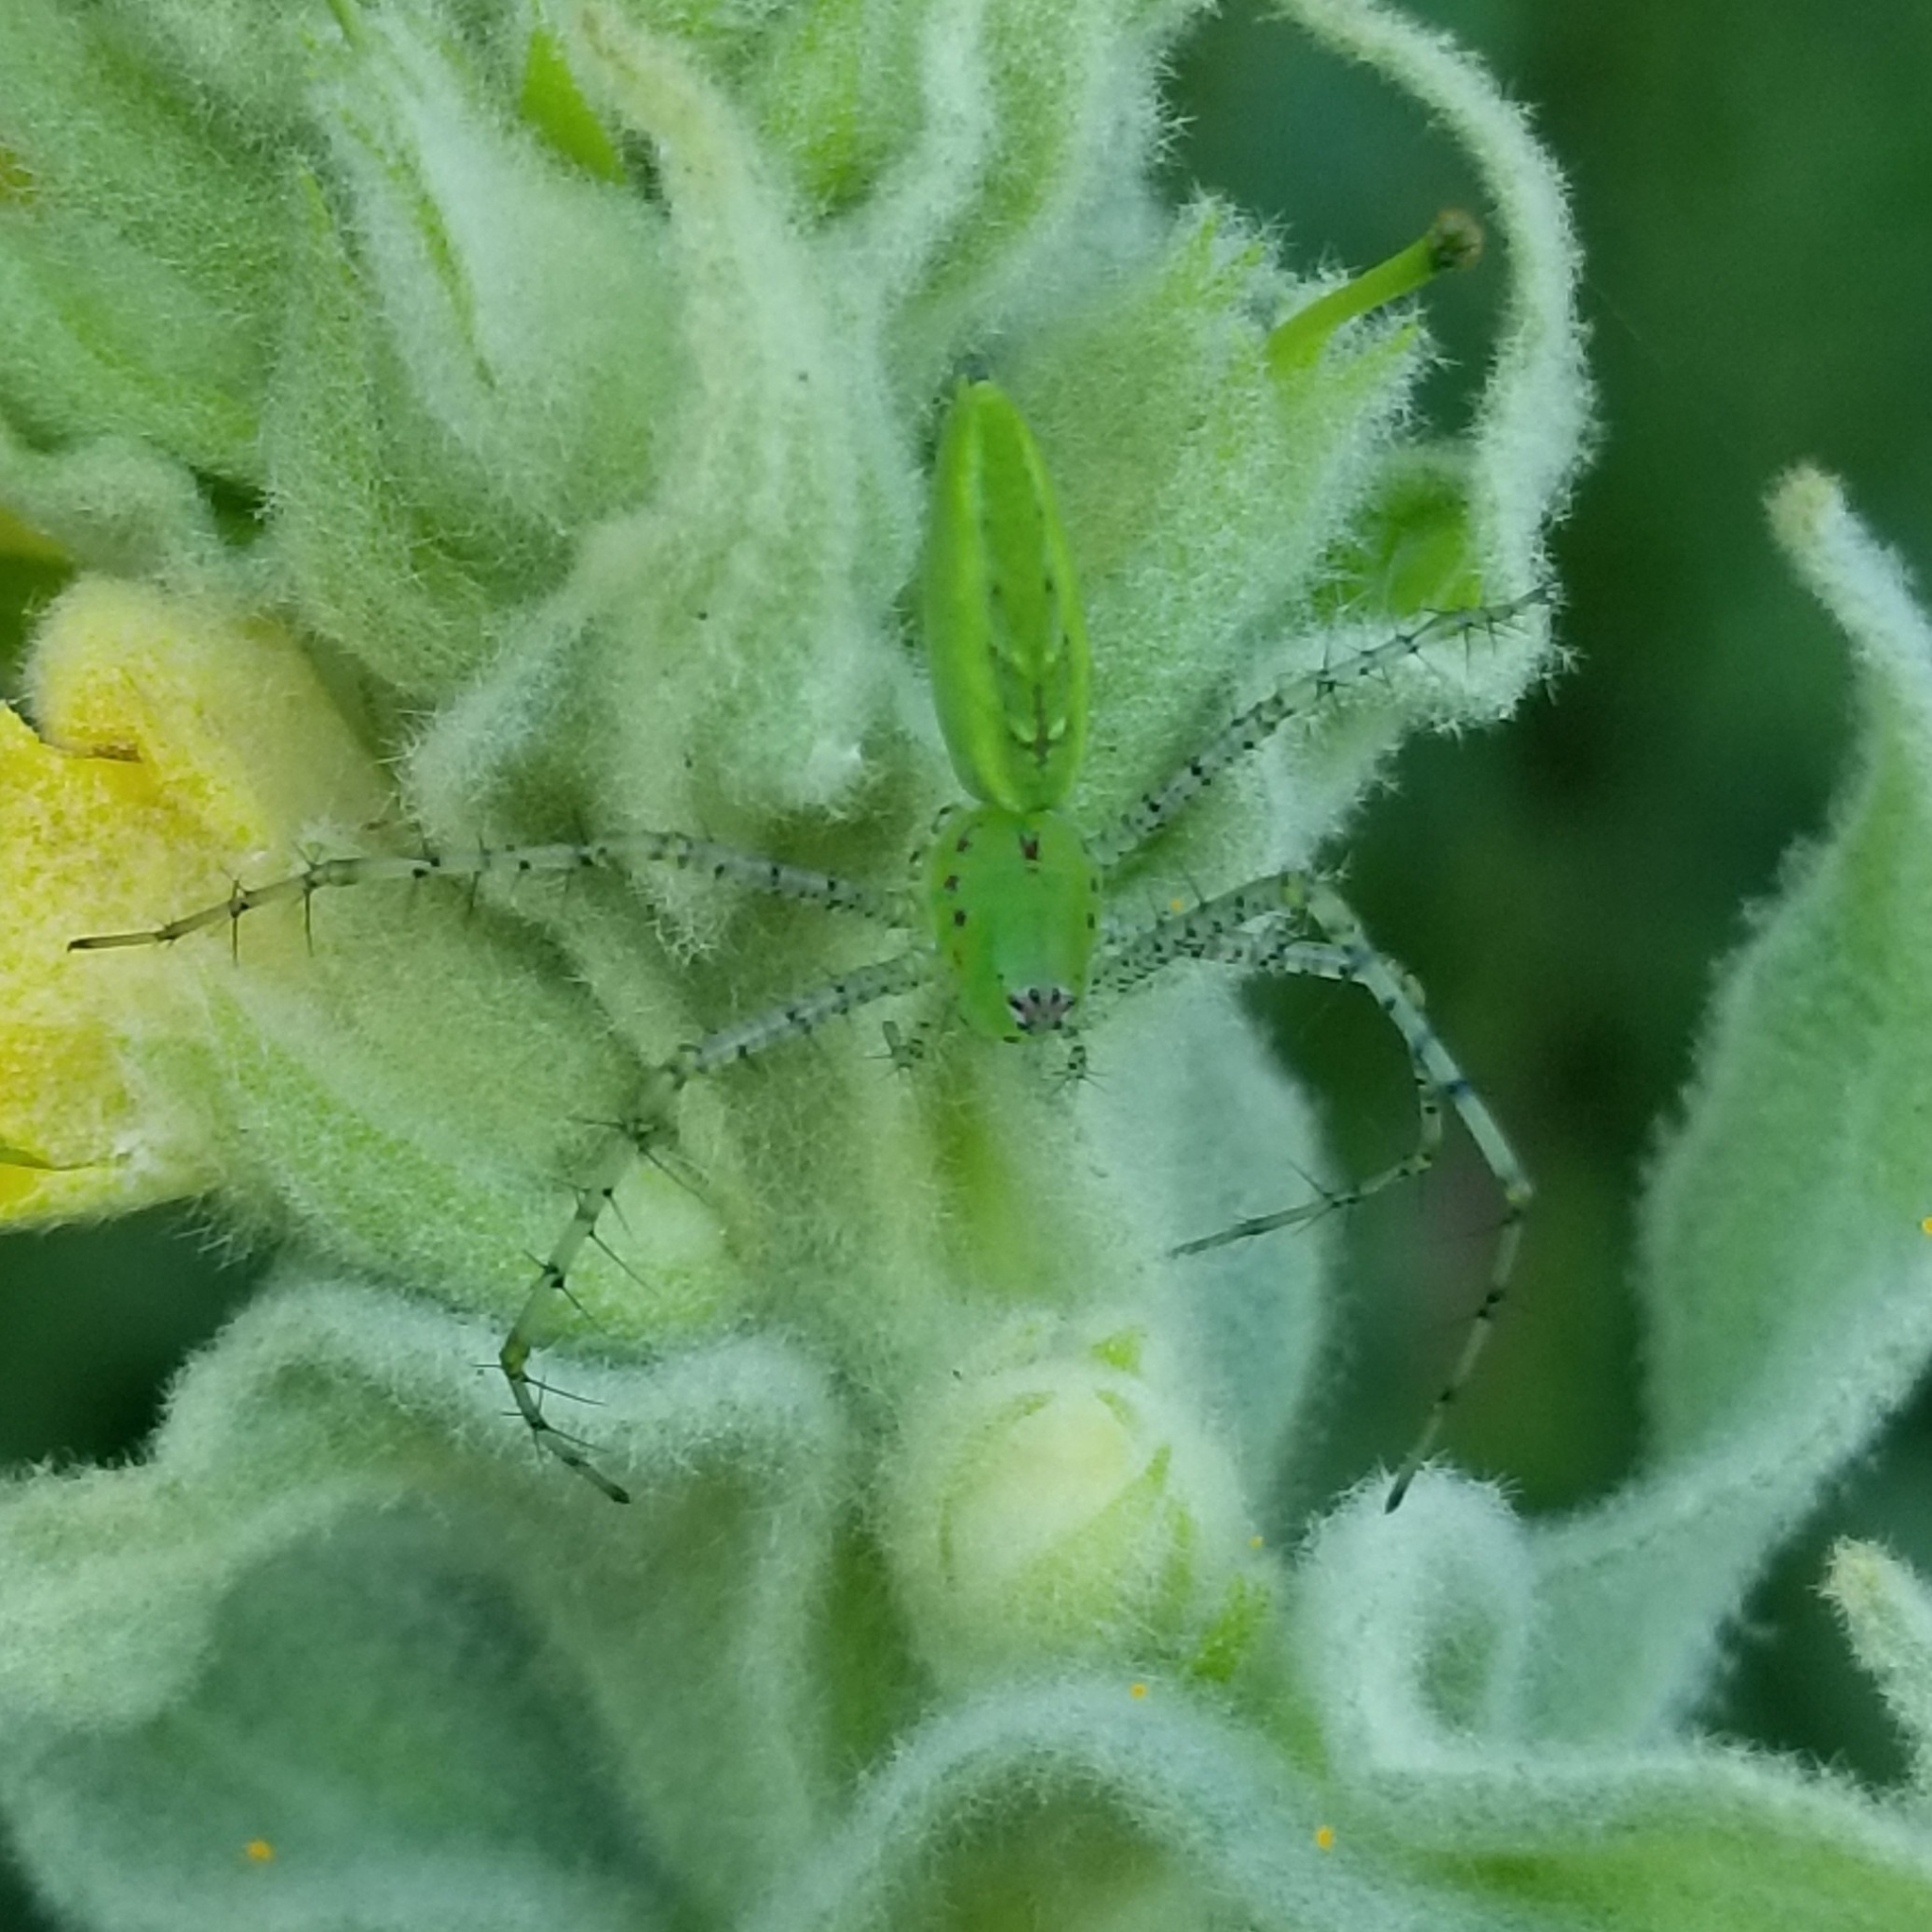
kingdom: Animalia
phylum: Arthropoda
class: Arachnida
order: Araneae
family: Oxyopidae
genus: Peucetia
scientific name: Peucetia viridans
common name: Lynx spiders
